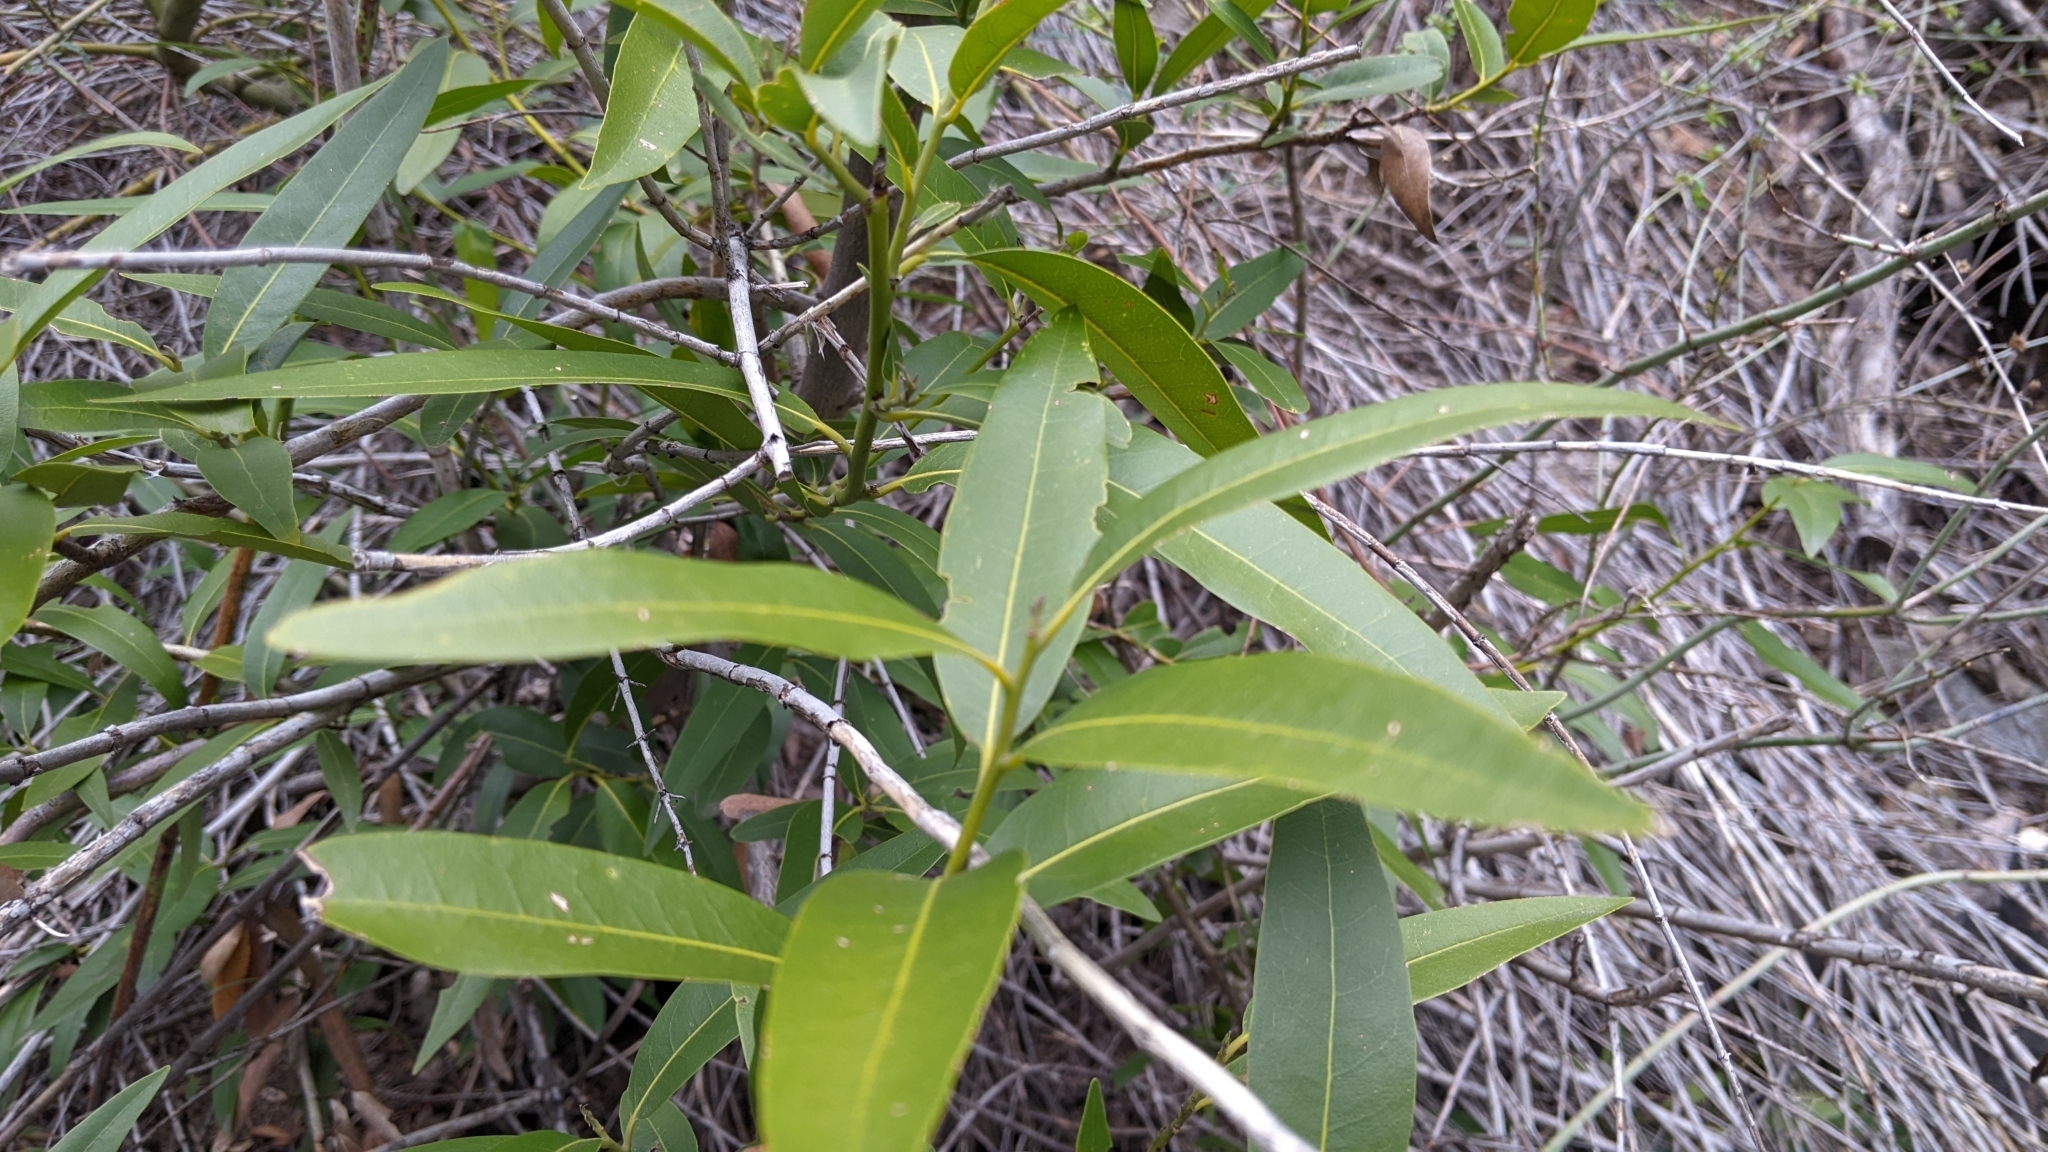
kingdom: Plantae
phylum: Tracheophyta
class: Magnoliopsida
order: Laurales
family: Lauraceae
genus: Umbellularia
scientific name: Umbellularia californica
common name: California bay
